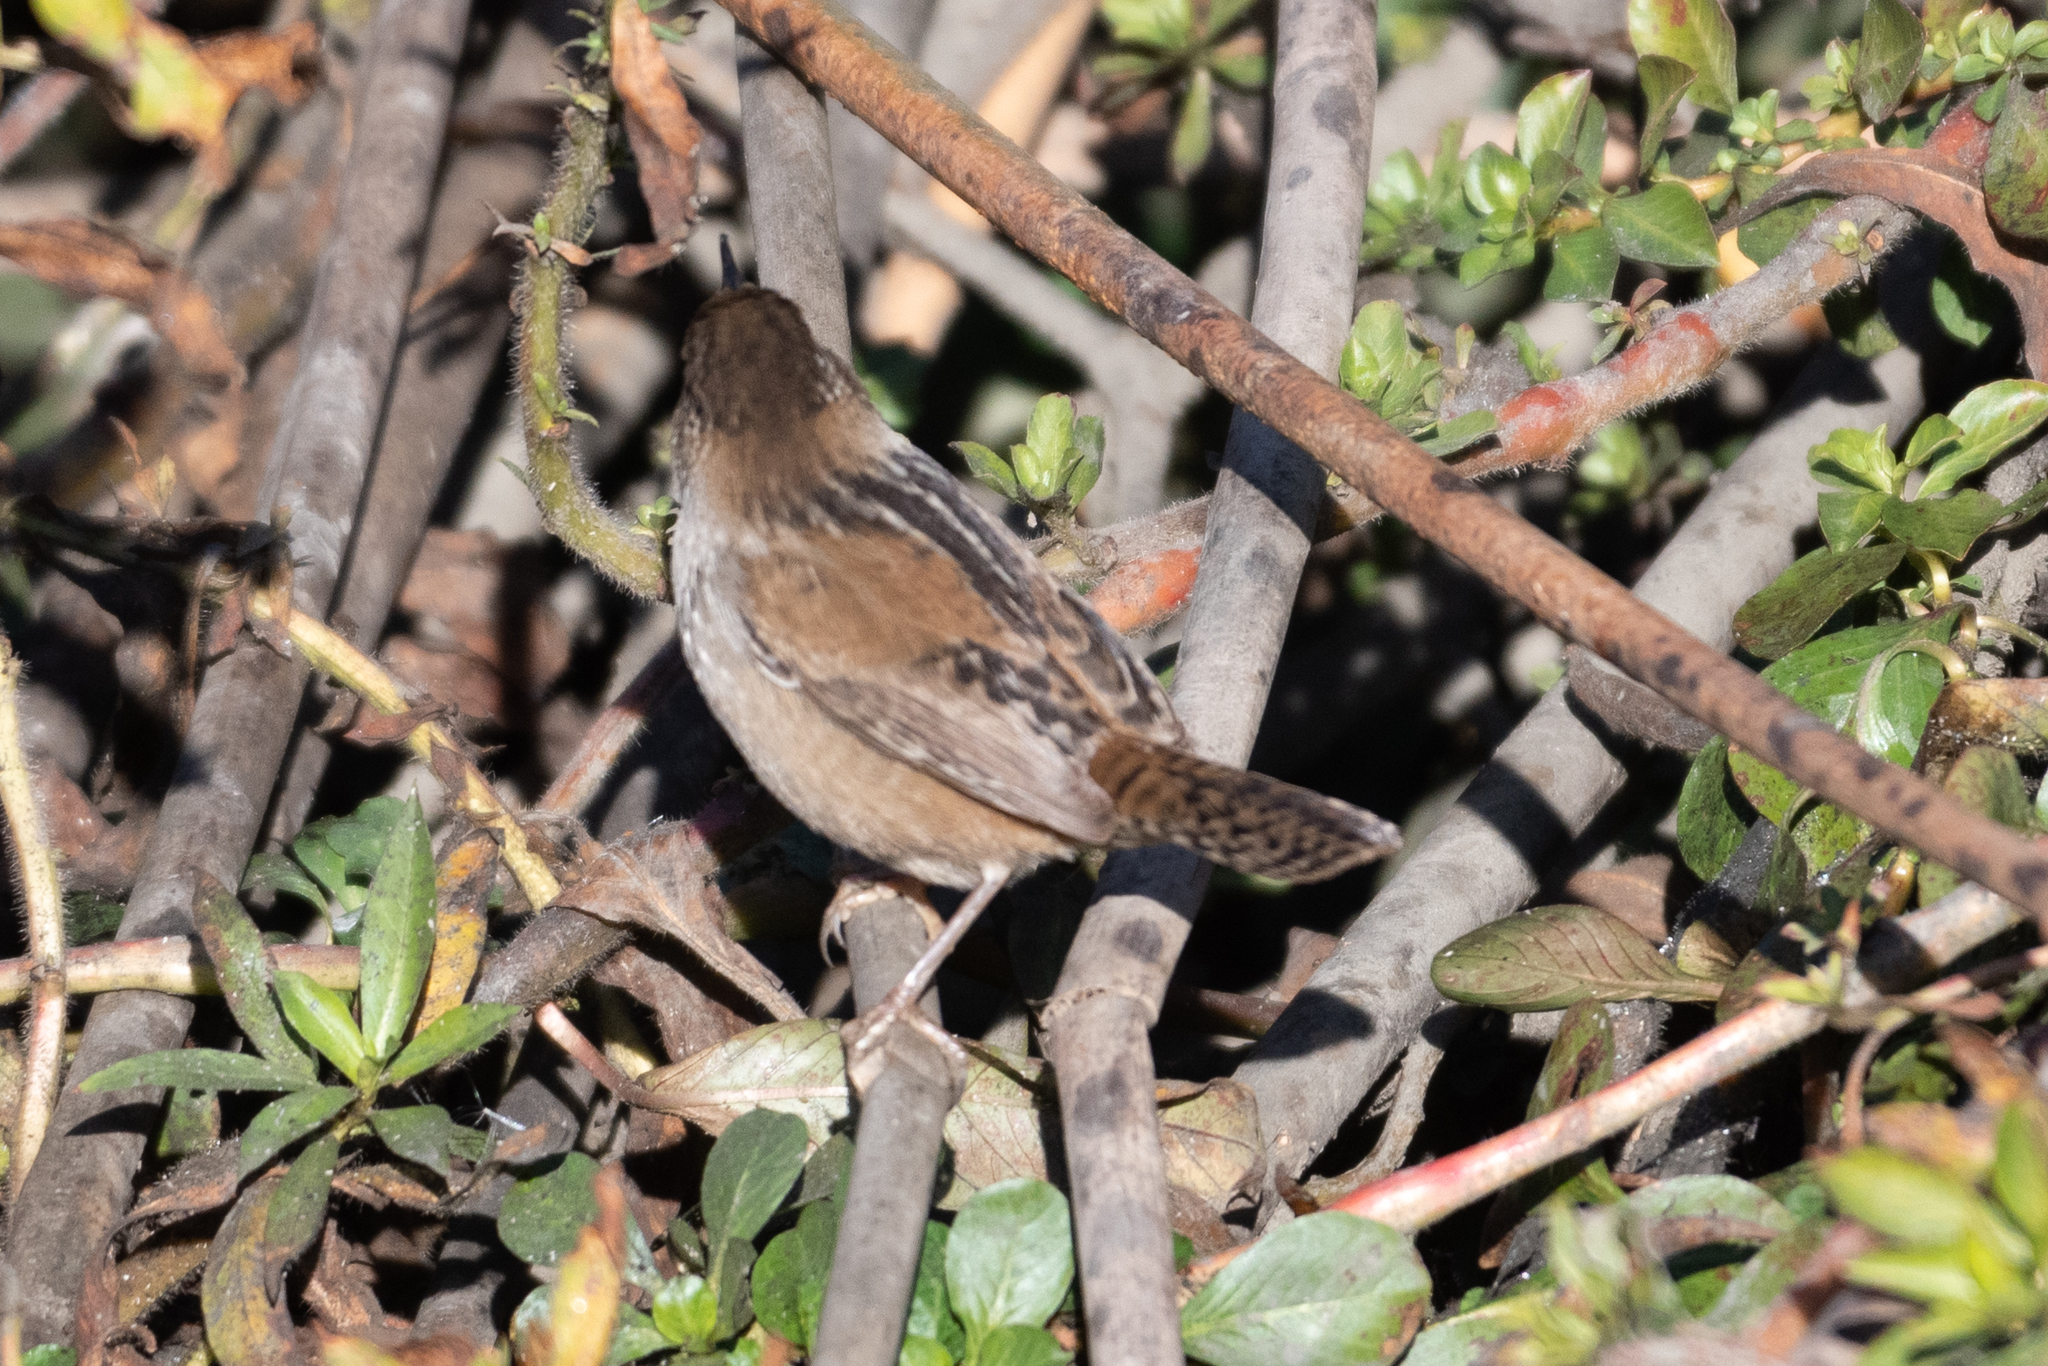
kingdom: Animalia
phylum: Chordata
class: Aves
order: Passeriformes
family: Troglodytidae
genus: Cistothorus
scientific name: Cistothorus palustris
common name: Marsh wren
